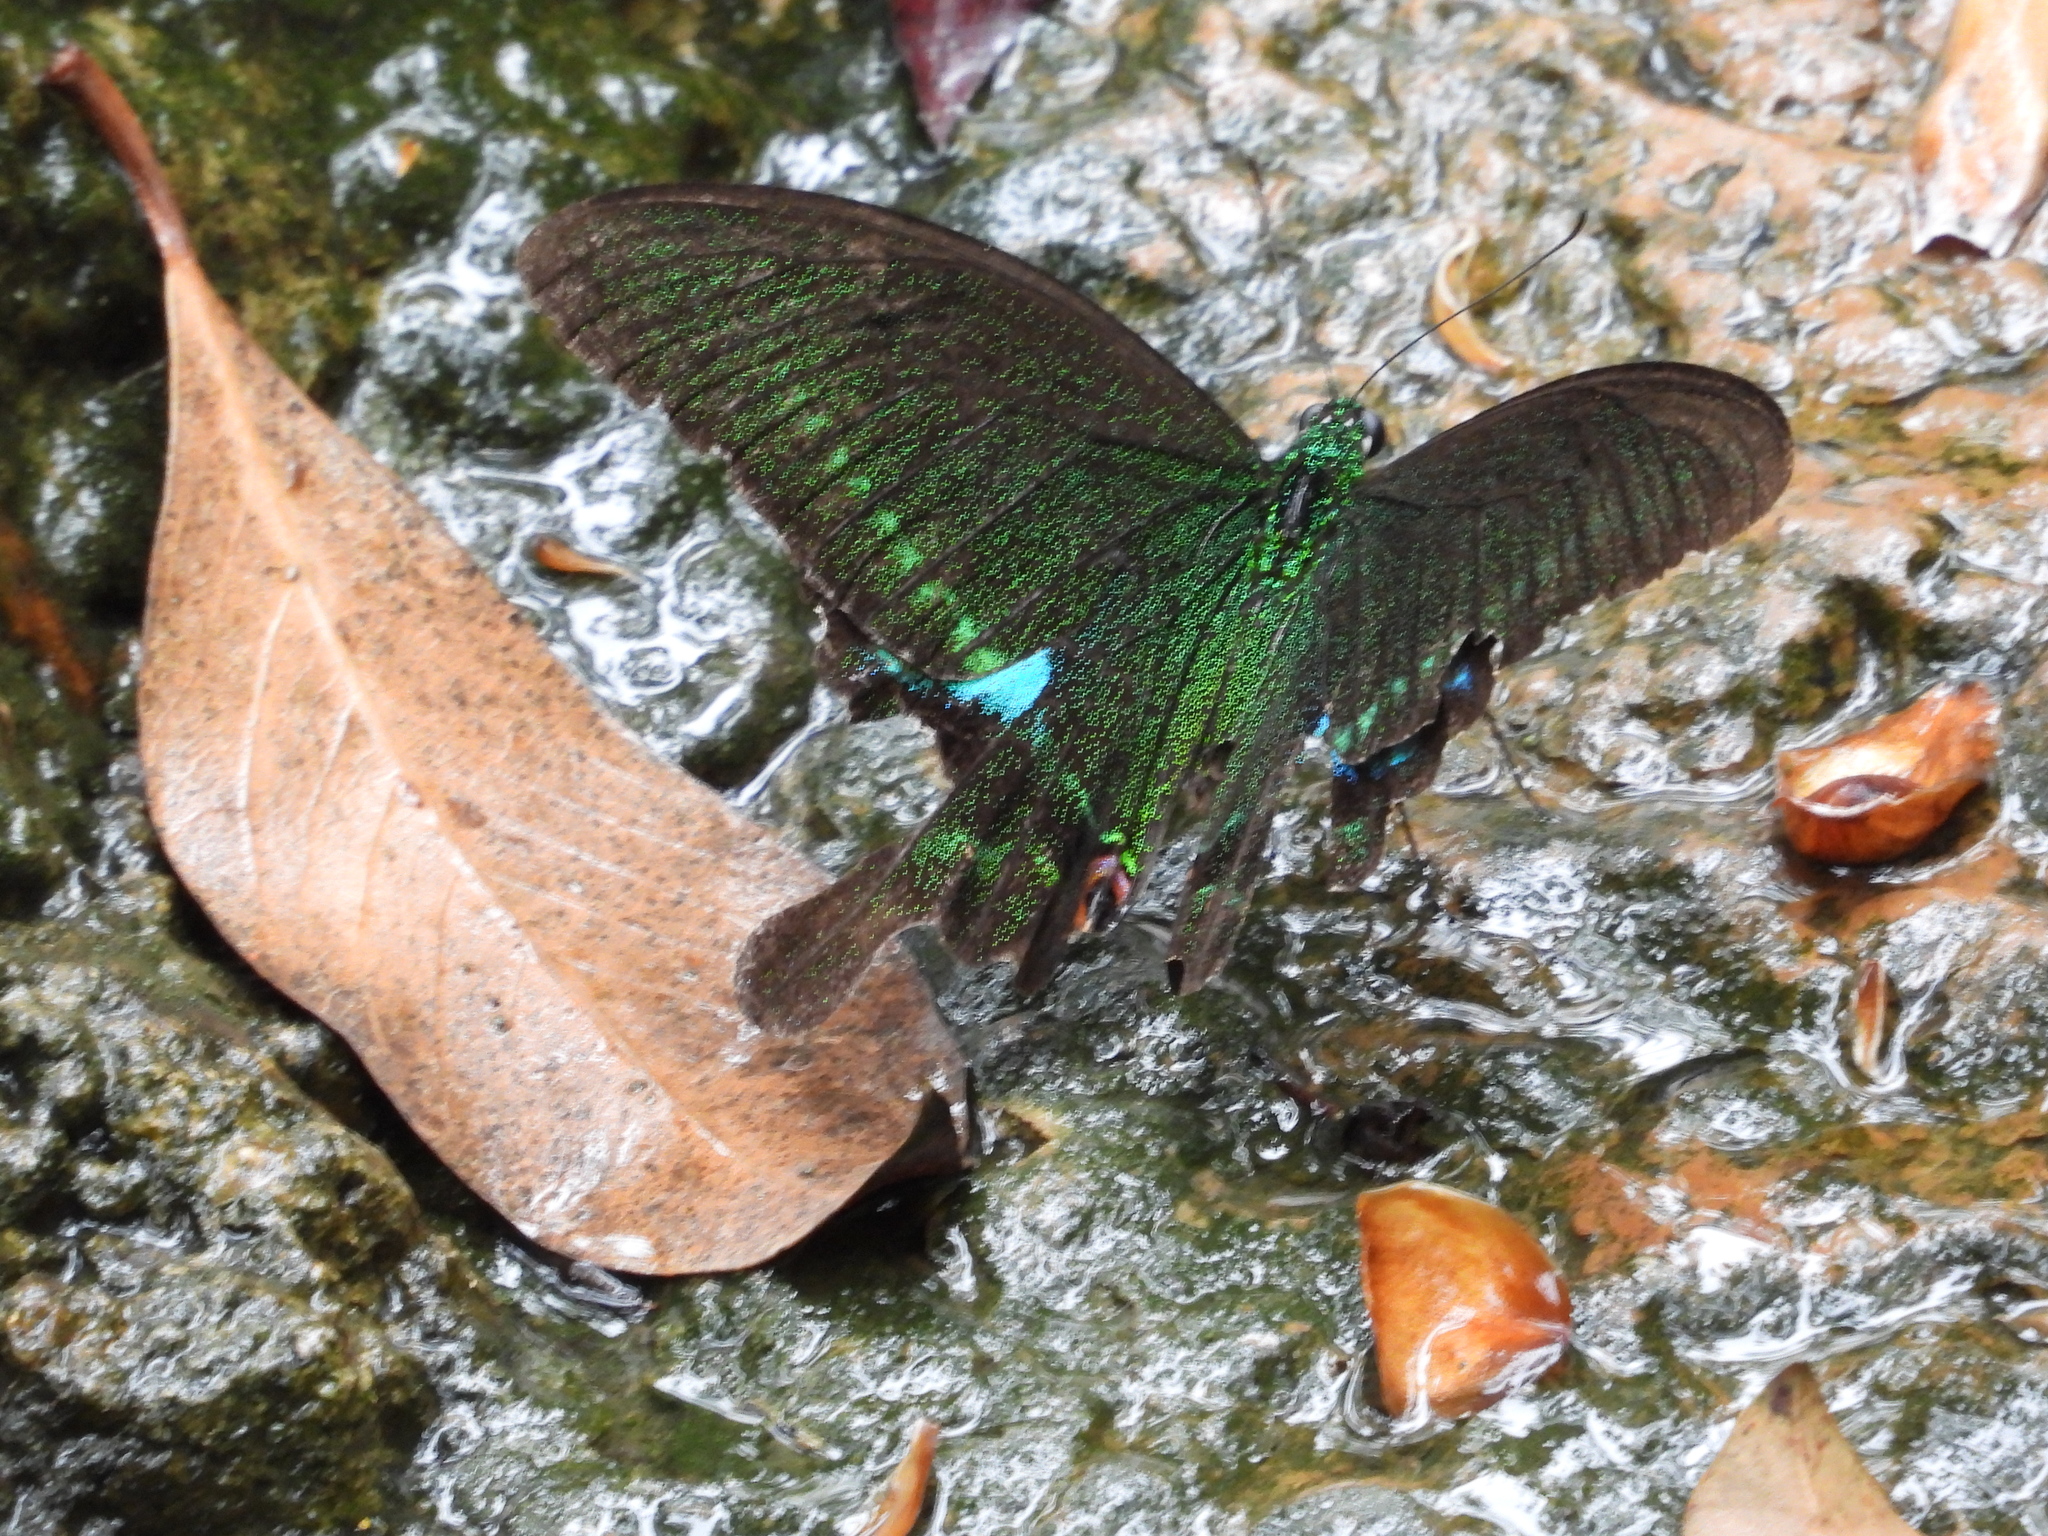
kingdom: Animalia
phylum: Arthropoda
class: Insecta
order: Lepidoptera
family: Papilionidae
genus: Papilio
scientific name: Papilio paris
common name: Paris peacock
